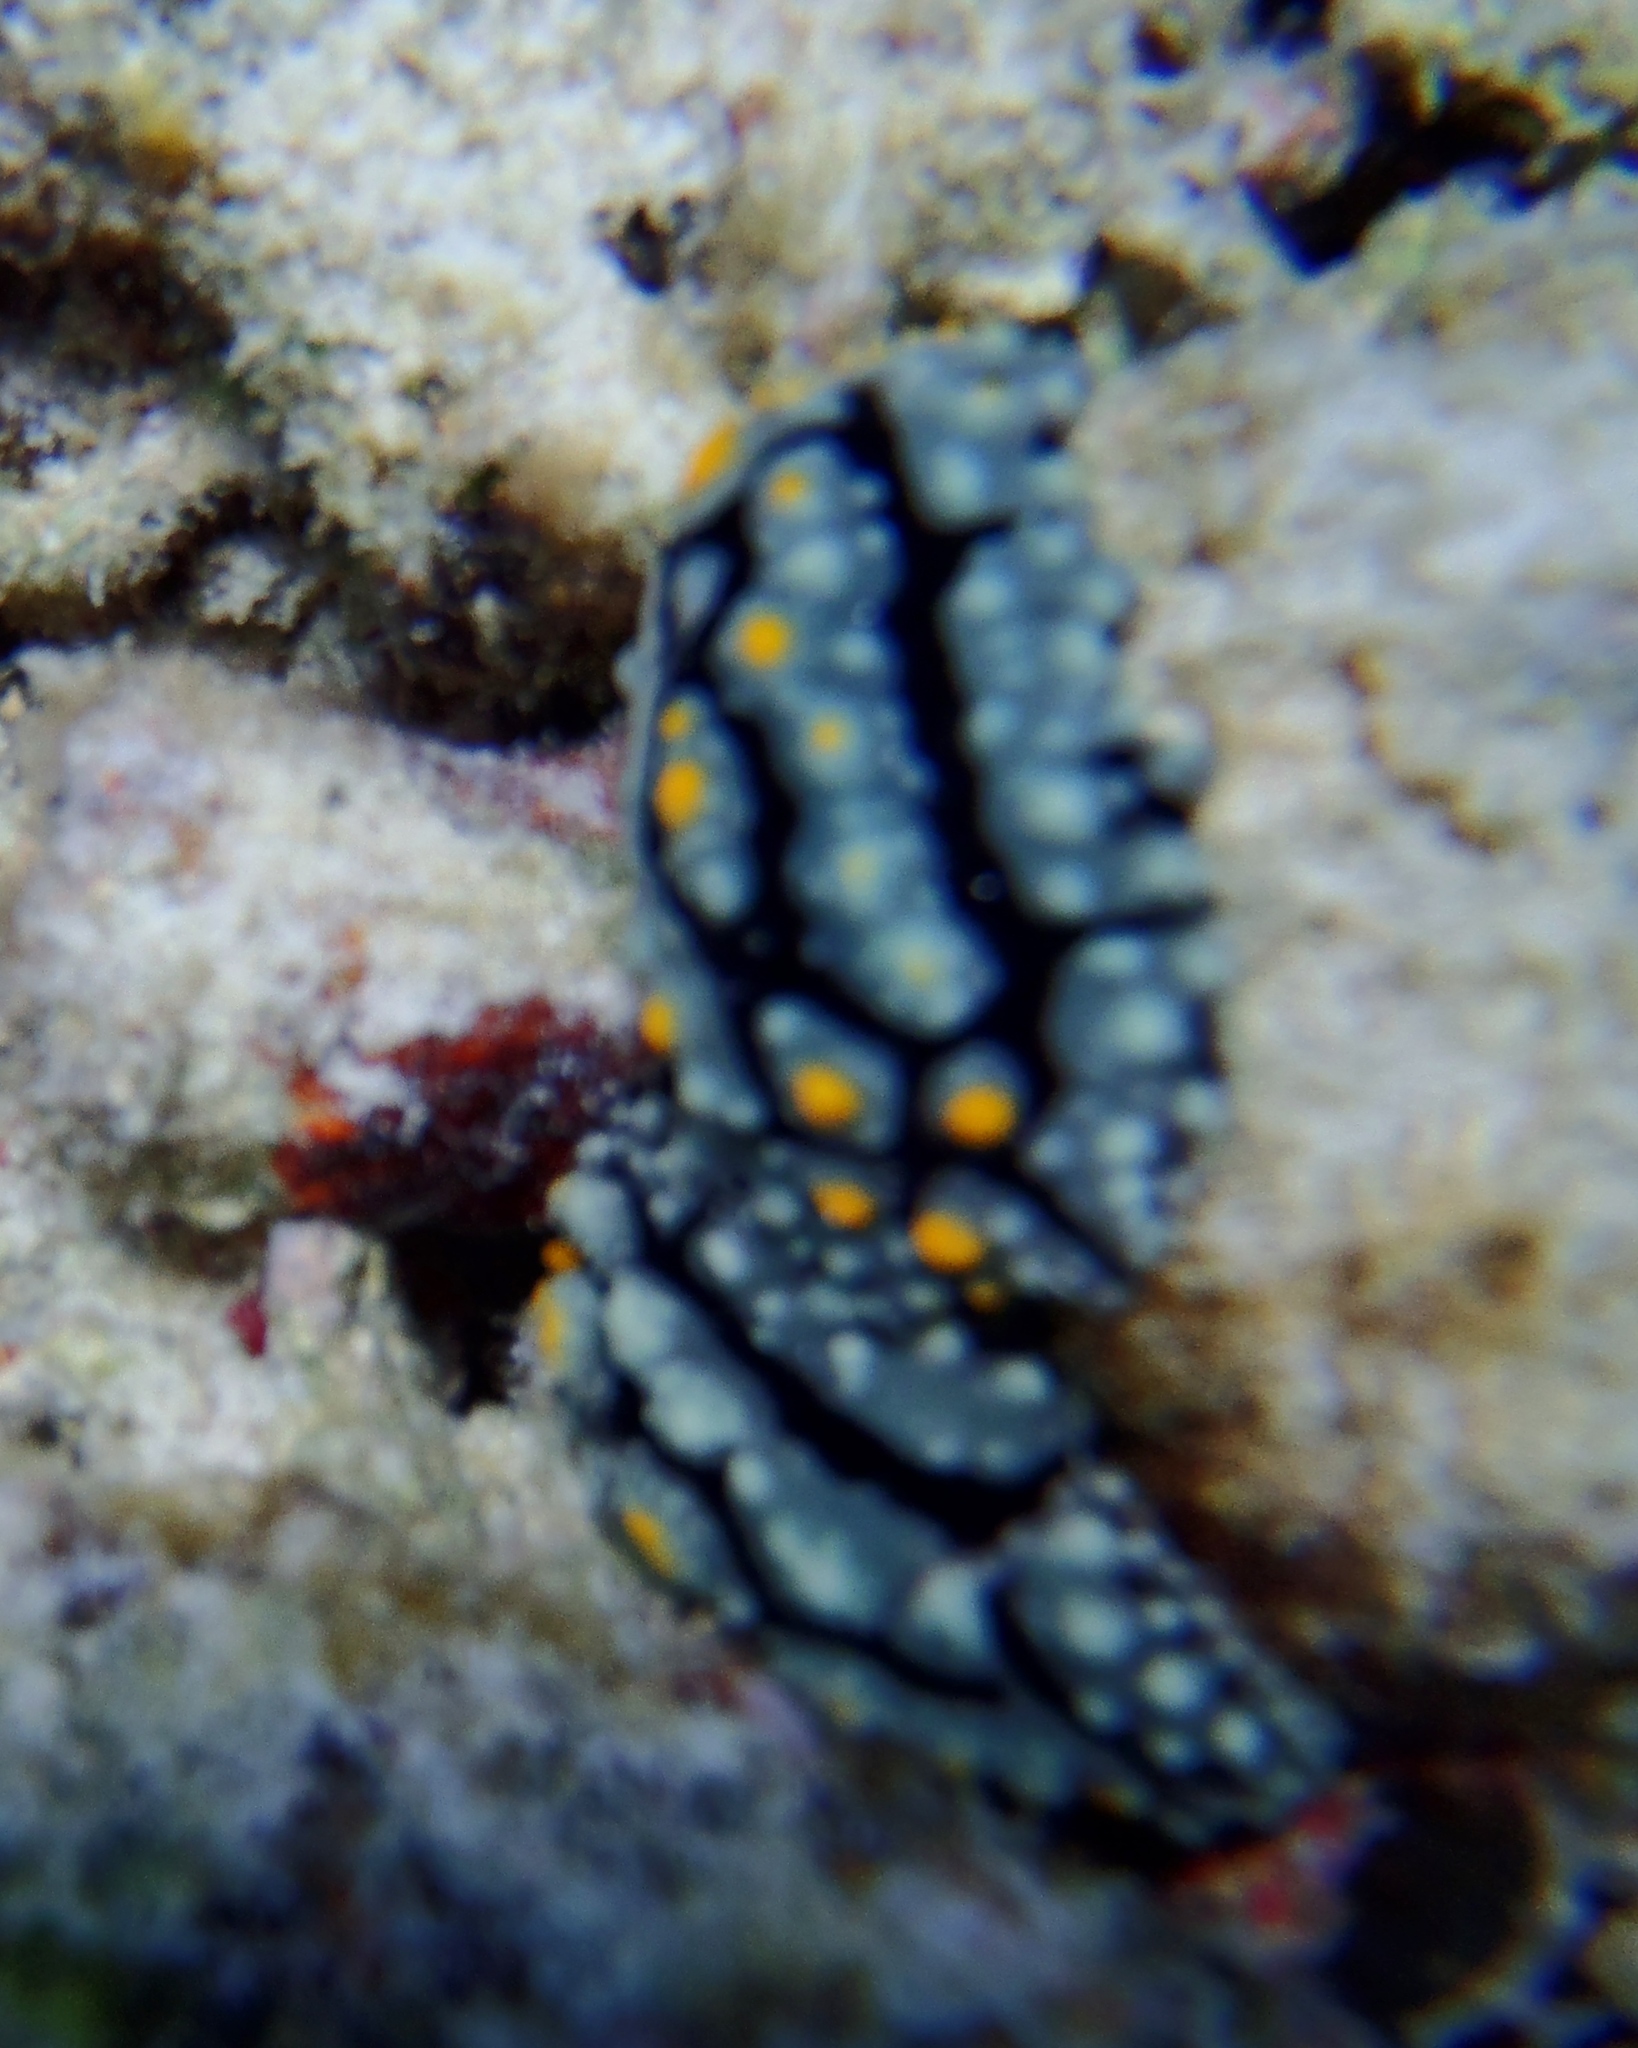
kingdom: Animalia
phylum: Mollusca
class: Gastropoda
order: Nudibranchia
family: Phyllidiidae
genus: Phyllidia
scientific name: Phyllidia elegans
